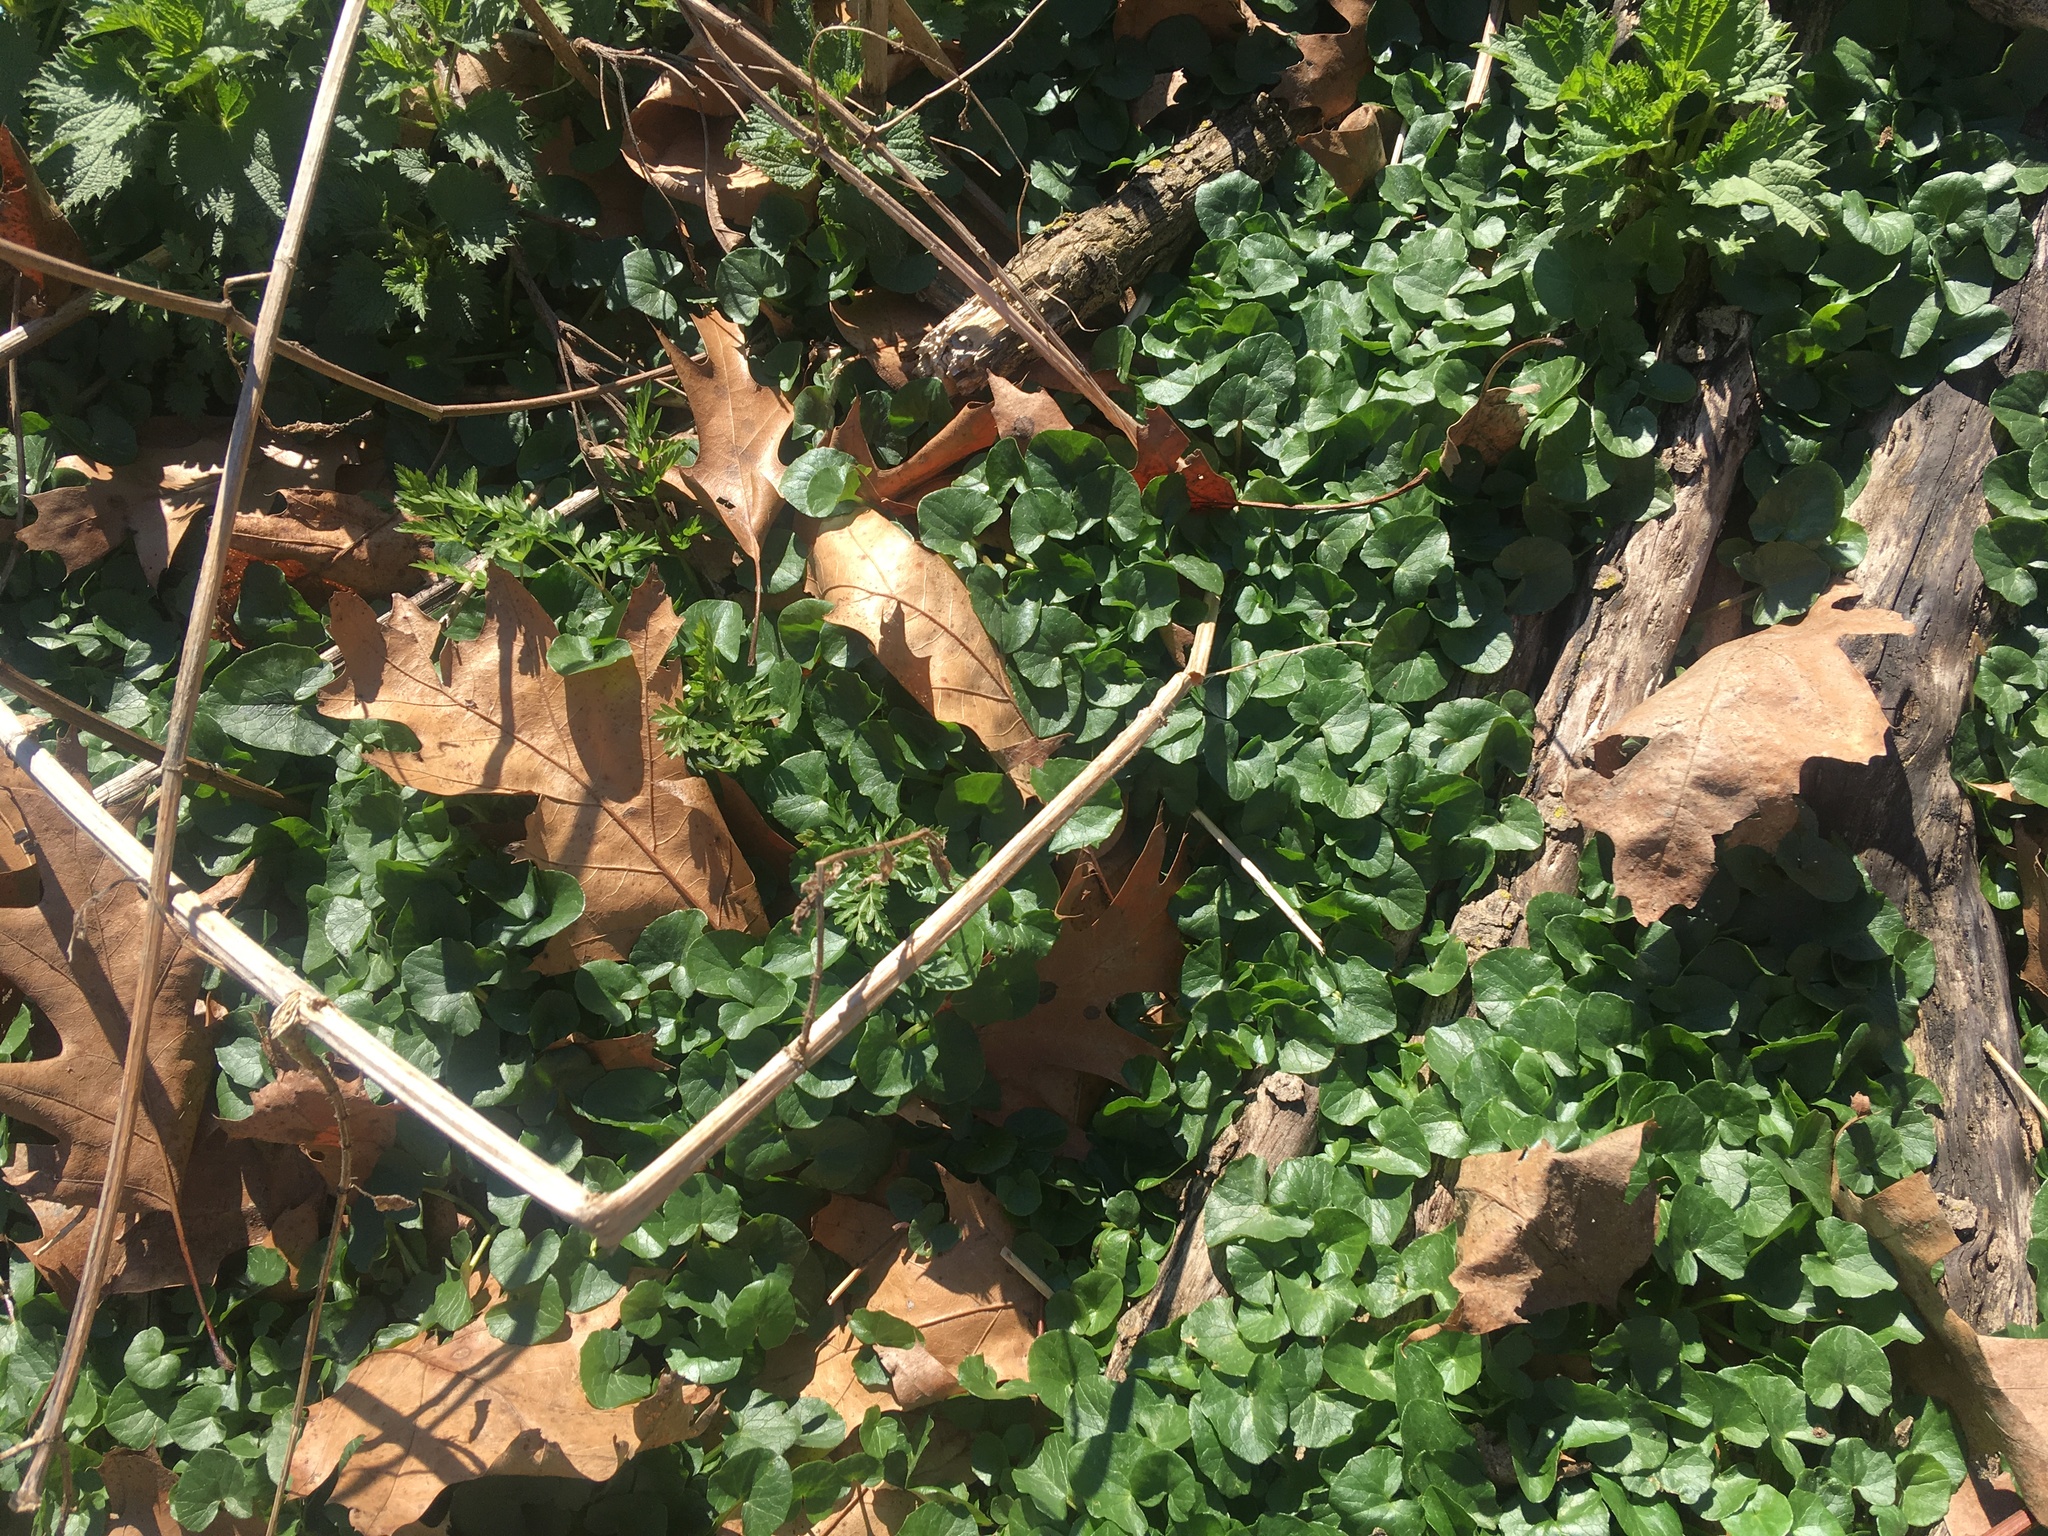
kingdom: Plantae
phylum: Tracheophyta
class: Magnoliopsida
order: Ranunculales
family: Ranunculaceae
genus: Ficaria
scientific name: Ficaria verna
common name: Lesser celandine
